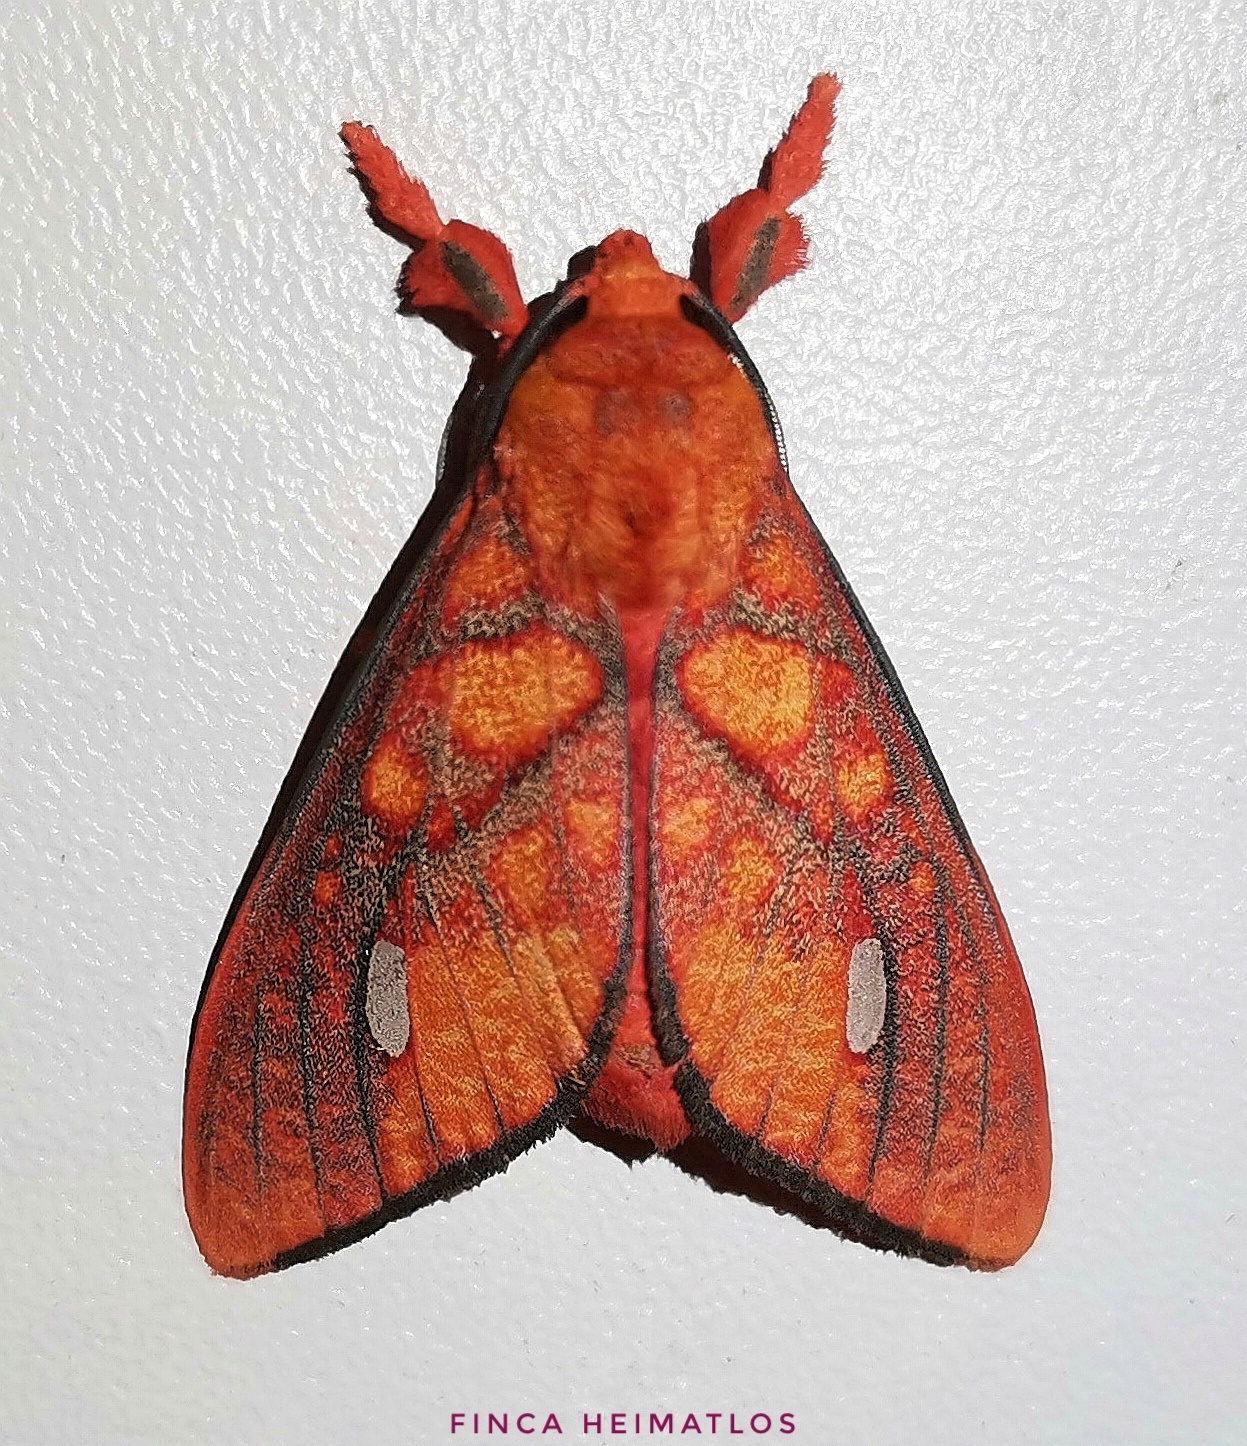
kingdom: Animalia
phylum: Arthropoda
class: Insecta
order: Lepidoptera
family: Erebidae
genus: Ernassa
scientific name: Ernassa sanguinolenta
